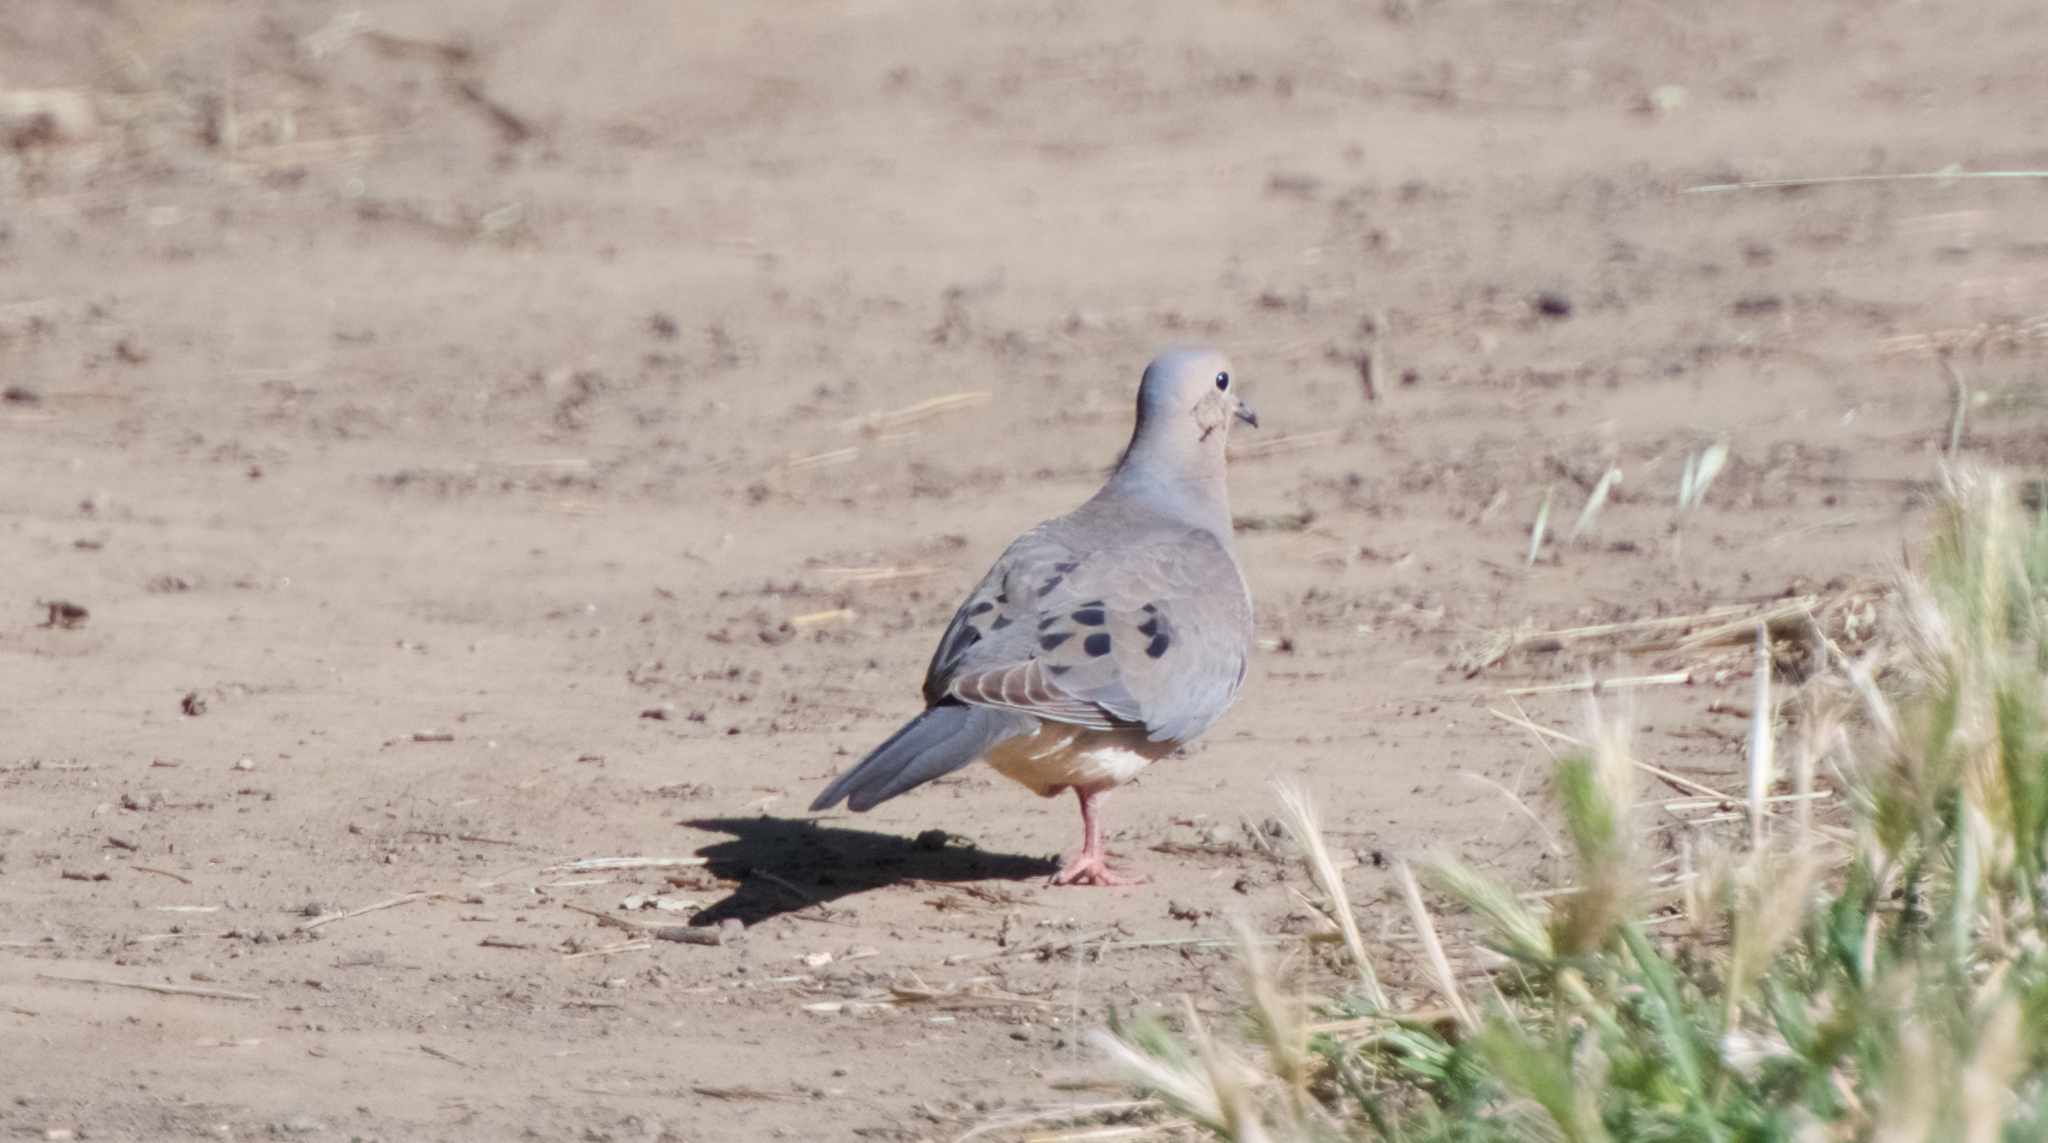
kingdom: Animalia
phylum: Chordata
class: Aves
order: Columbiformes
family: Columbidae
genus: Zenaida
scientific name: Zenaida macroura
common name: Mourning dove
